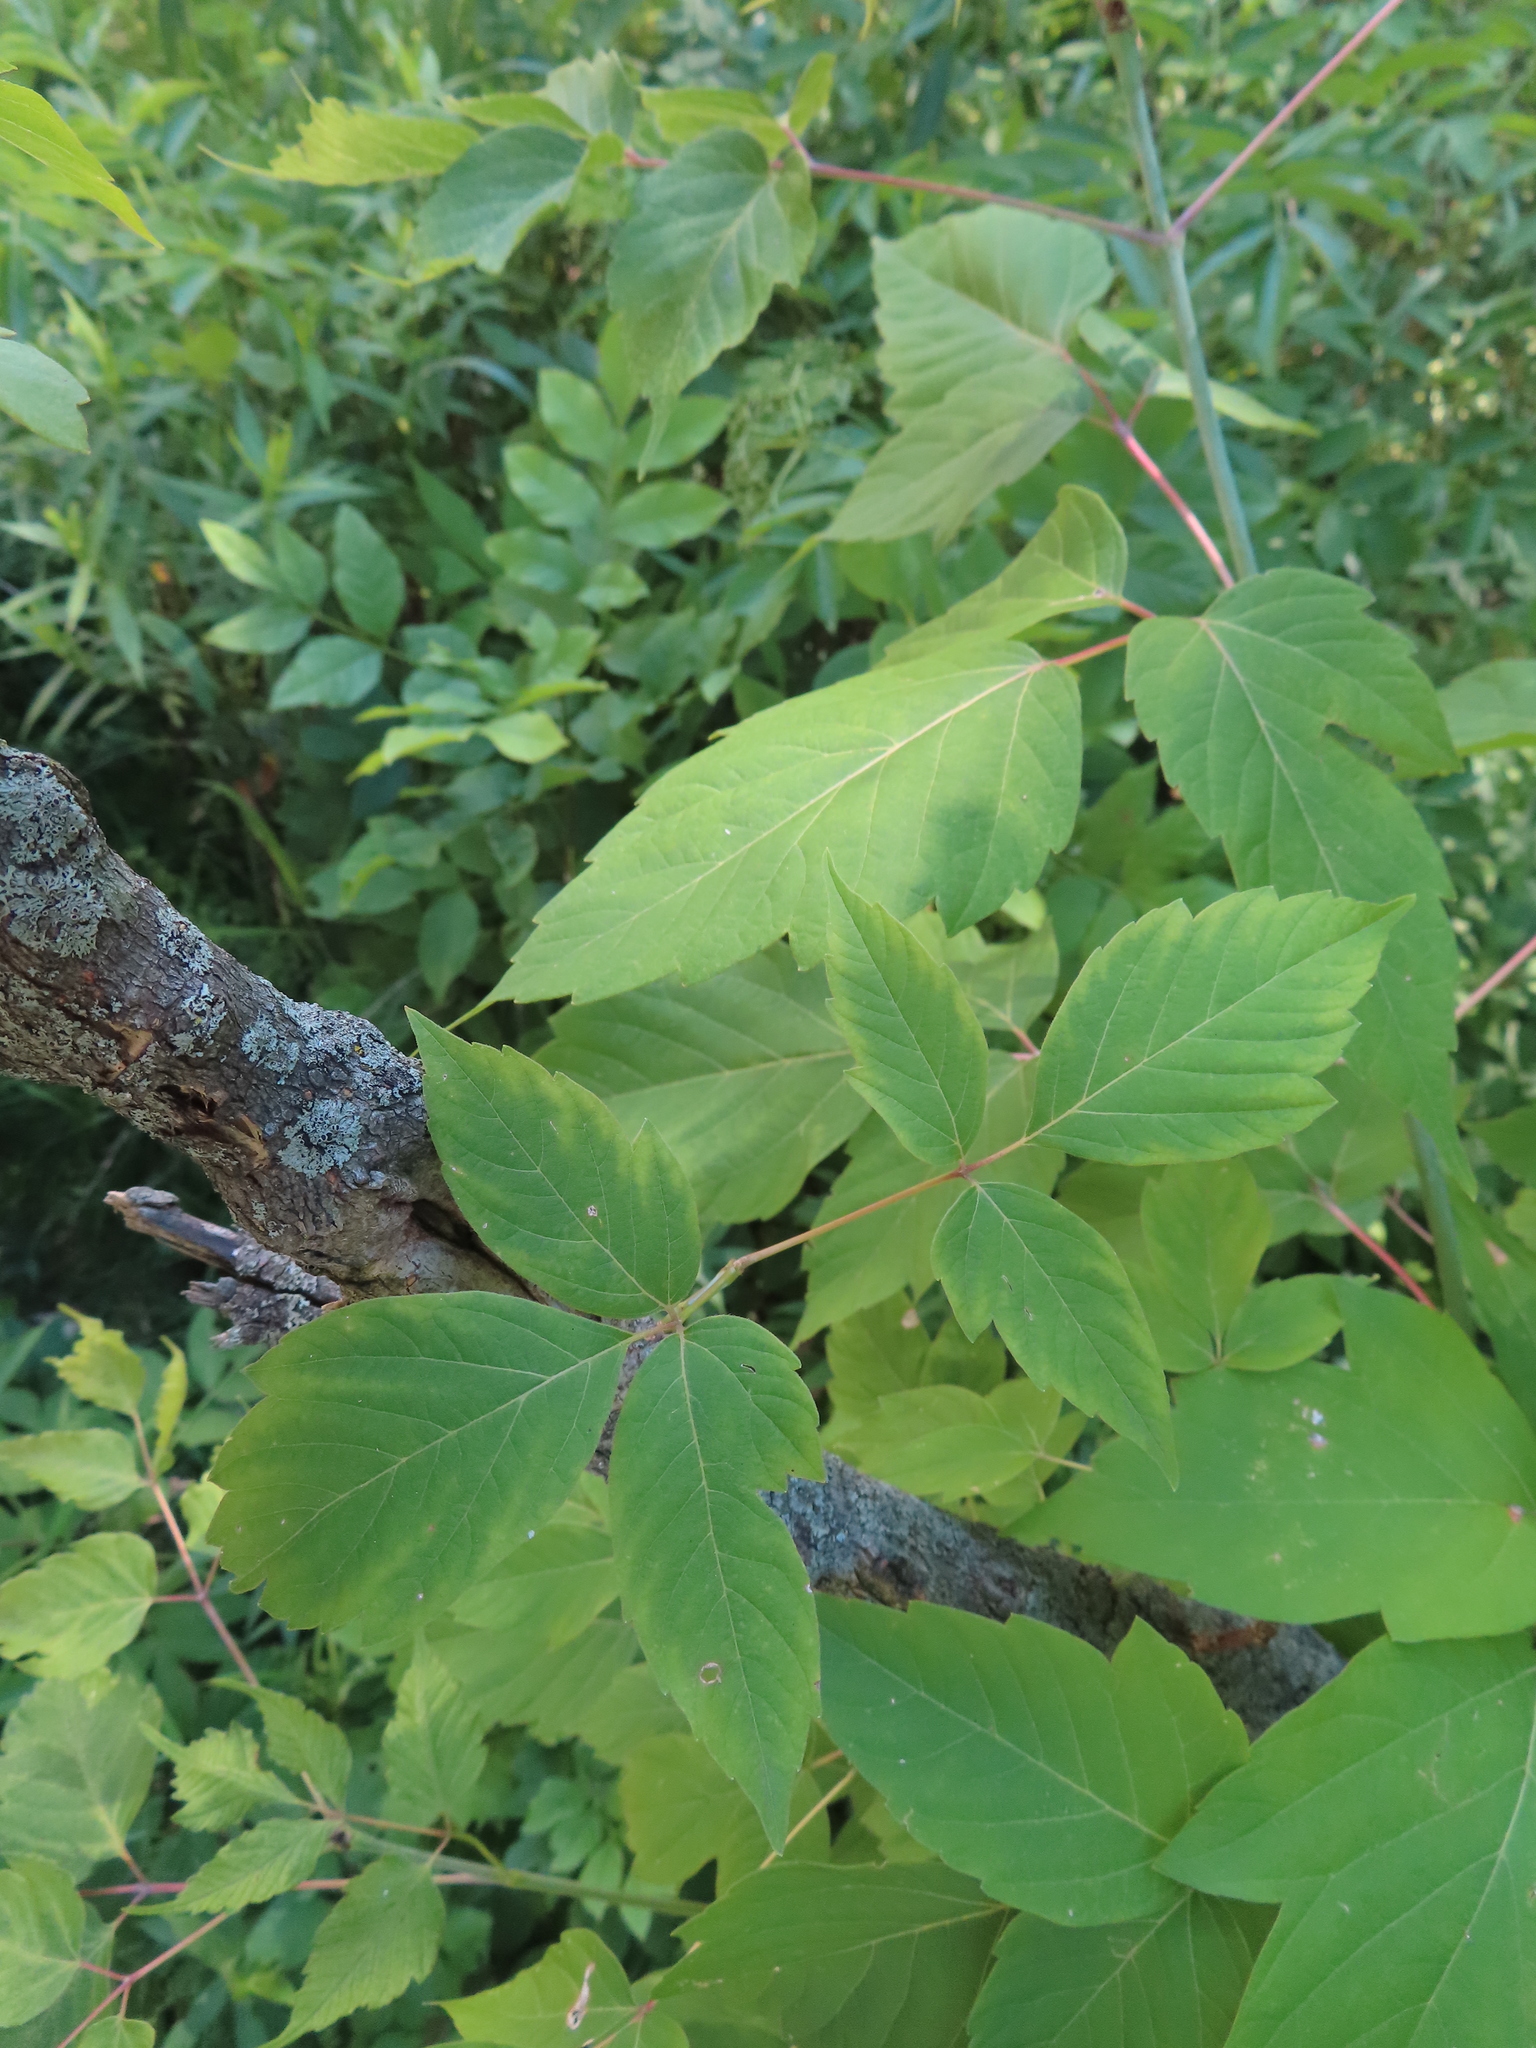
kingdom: Plantae
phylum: Tracheophyta
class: Magnoliopsida
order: Sapindales
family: Sapindaceae
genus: Acer
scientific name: Acer negundo
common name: Ashleaf maple
